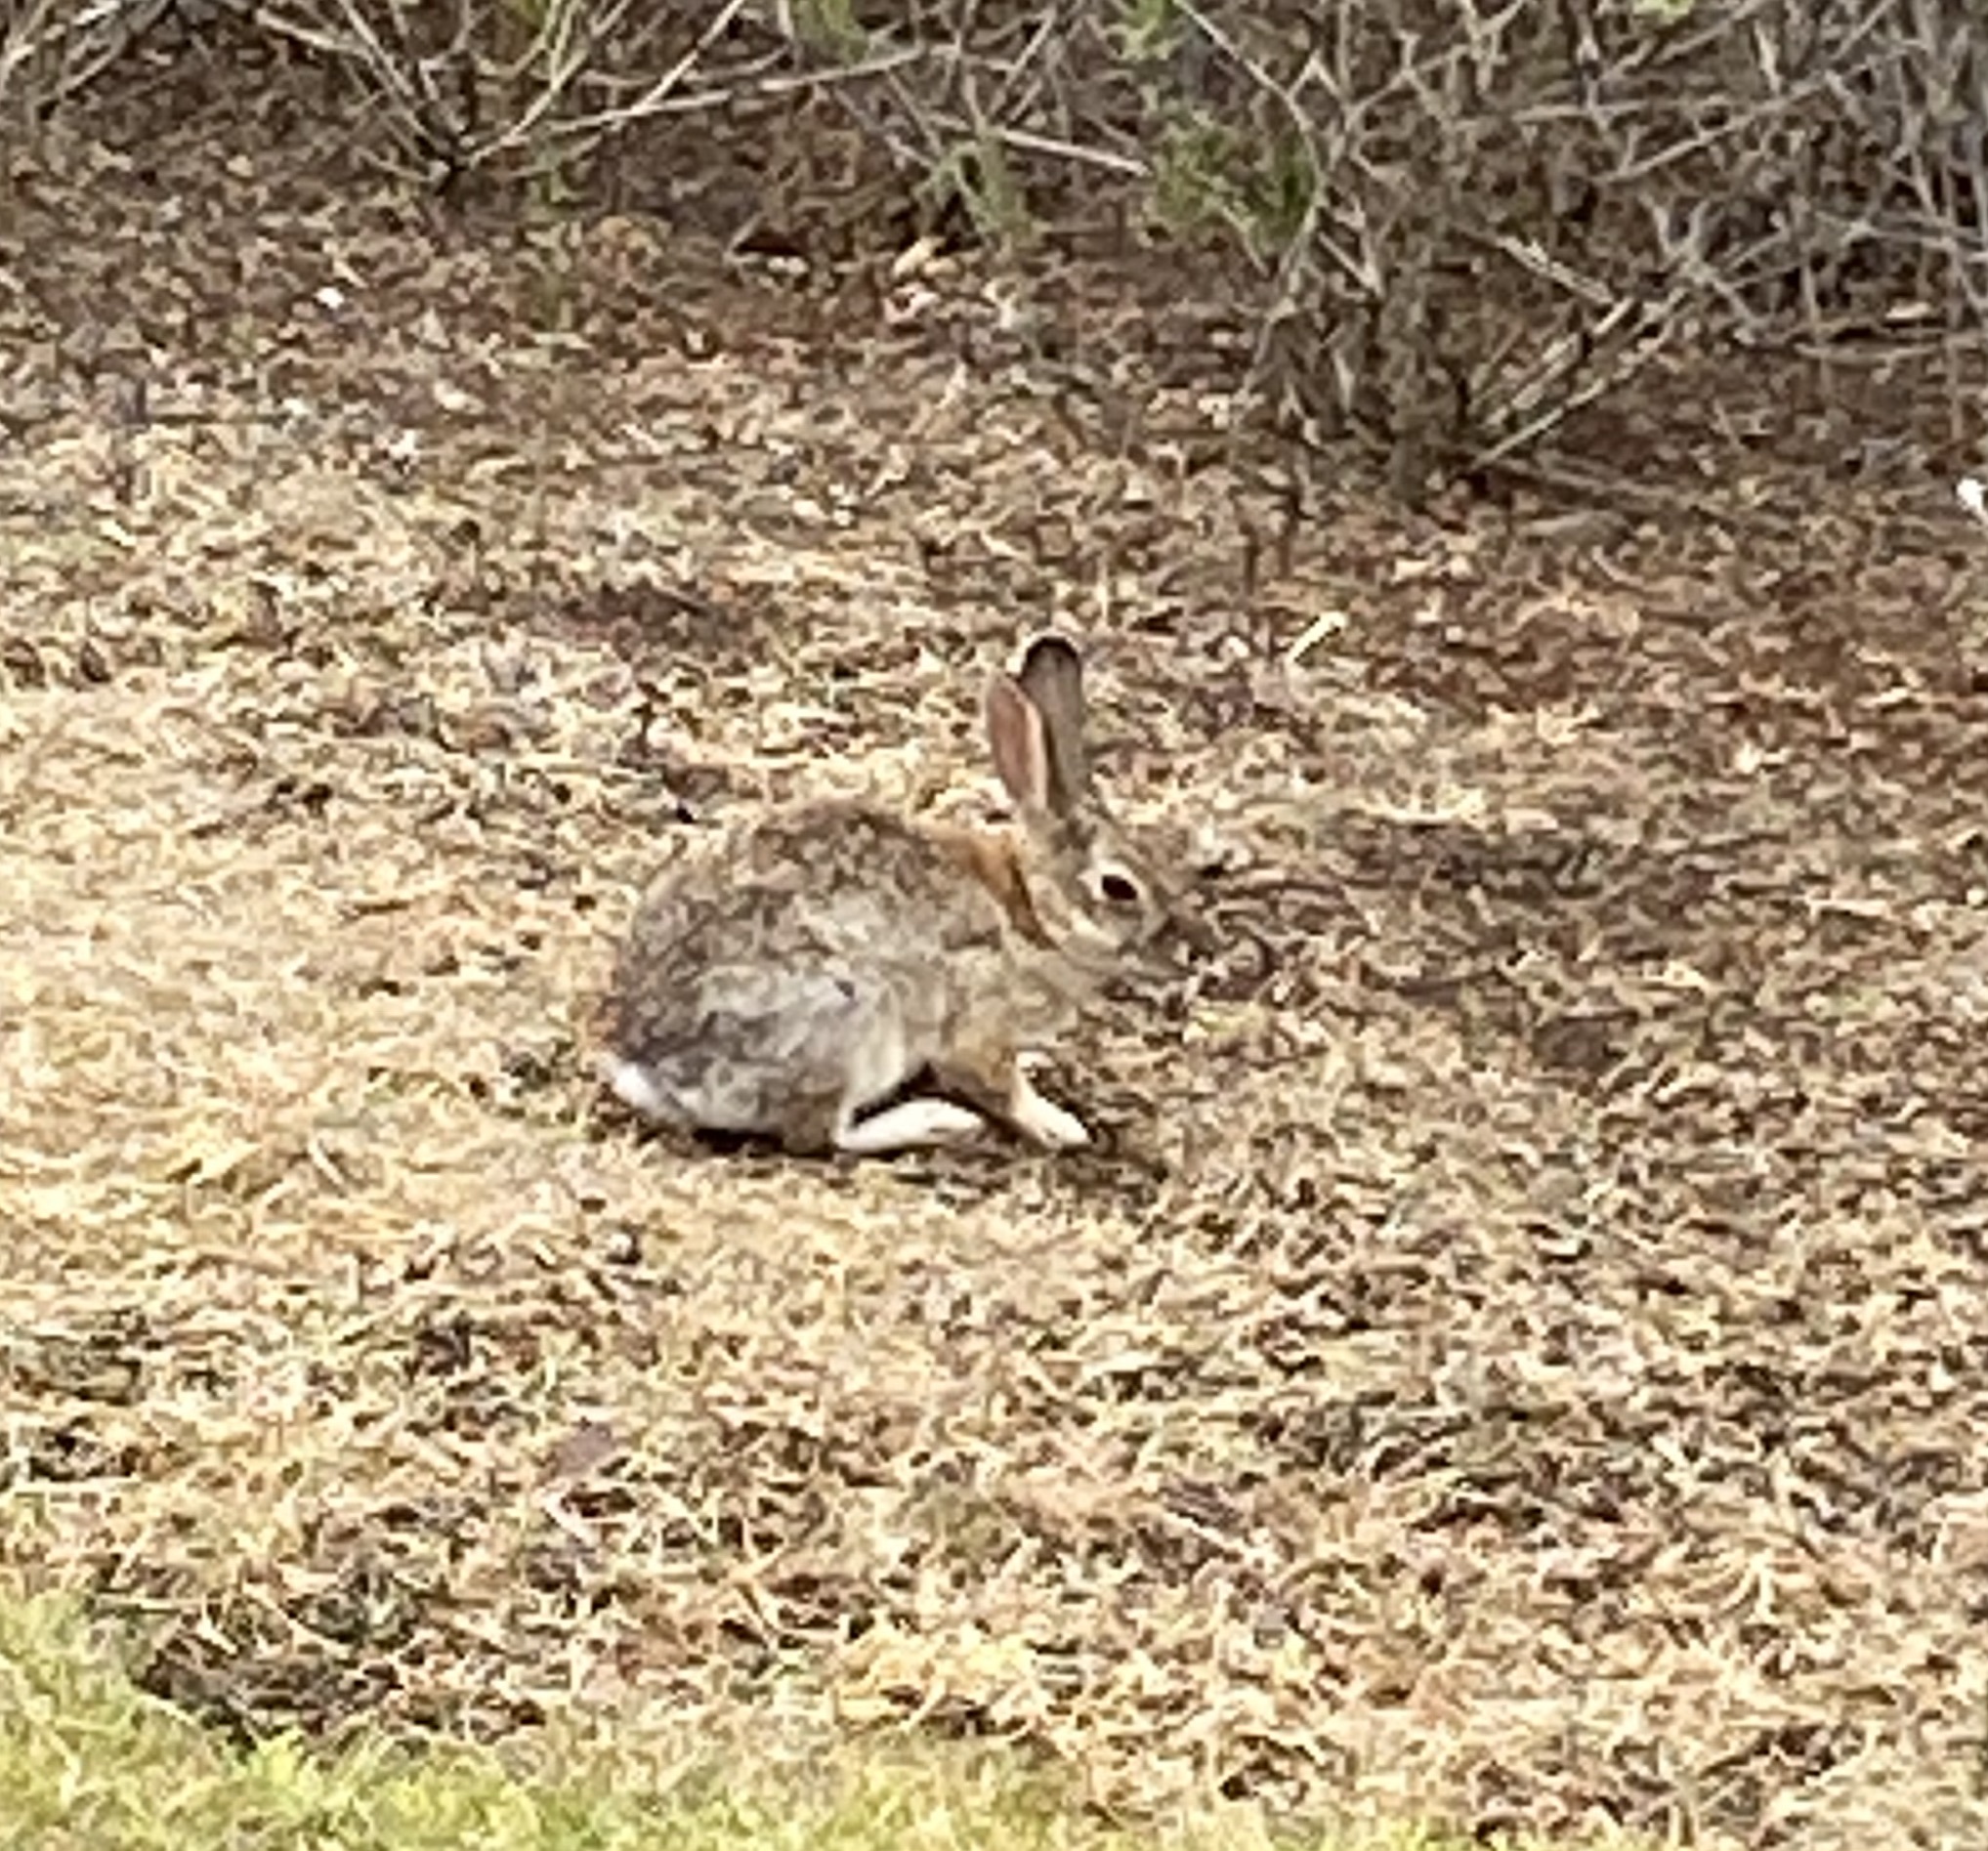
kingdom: Animalia
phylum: Chordata
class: Mammalia
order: Lagomorpha
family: Leporidae
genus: Sylvilagus
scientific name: Sylvilagus audubonii
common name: Desert cottontail
